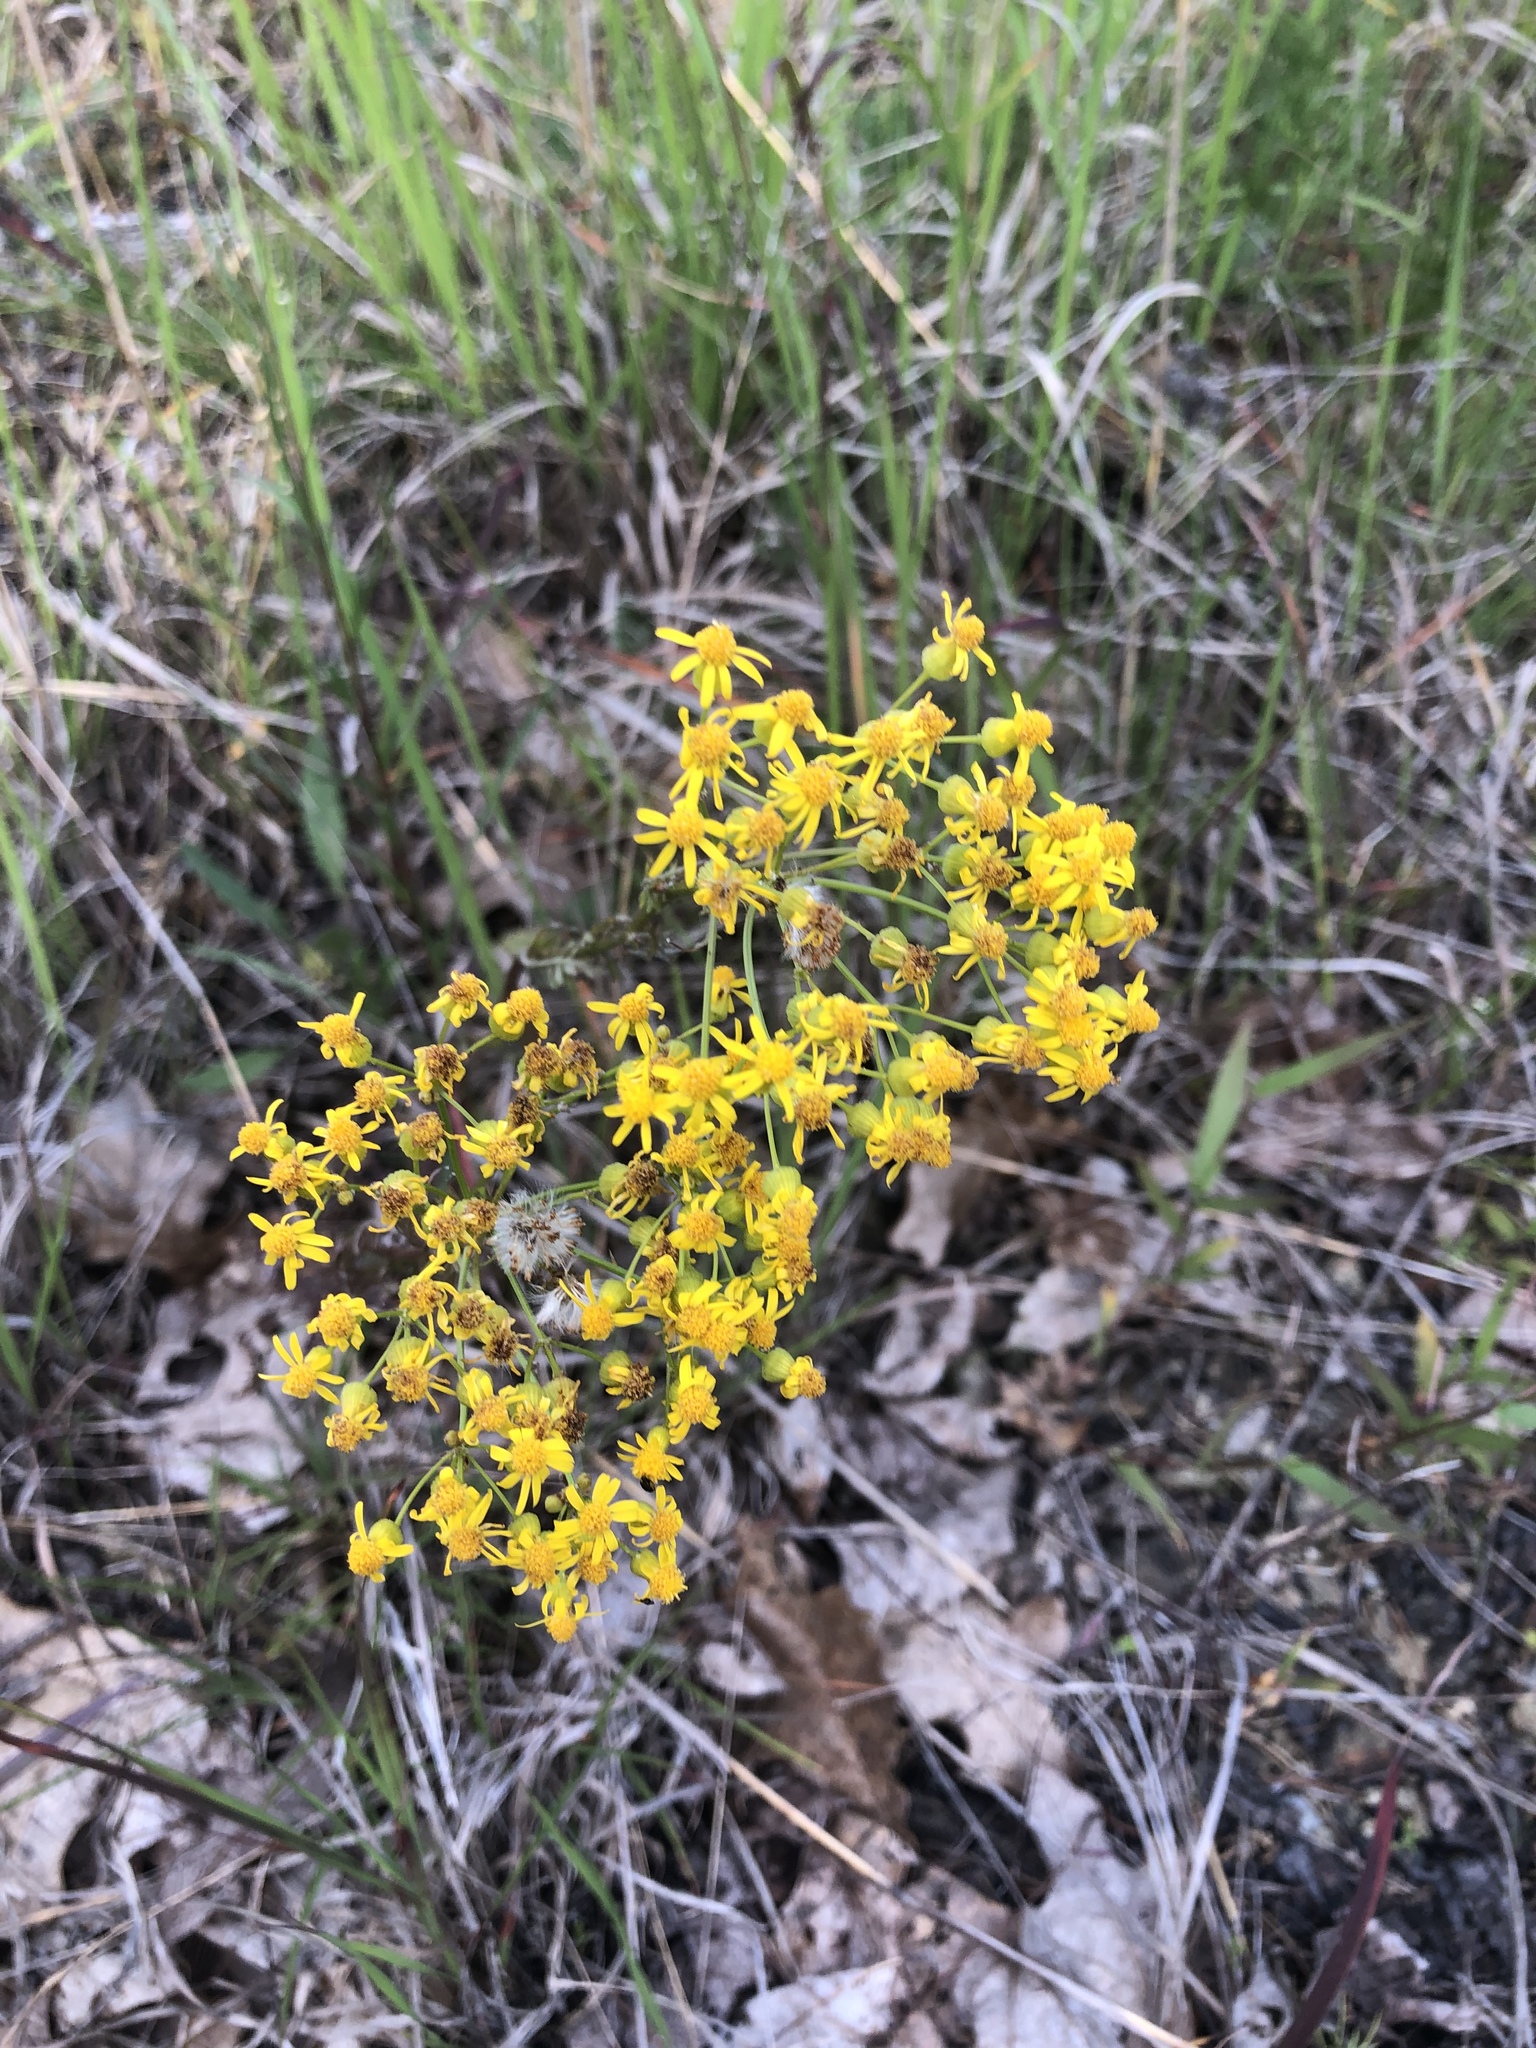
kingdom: Plantae
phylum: Tracheophyta
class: Magnoliopsida
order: Asterales
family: Asteraceae
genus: Packera
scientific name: Packera anonyma
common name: Small ragwort
